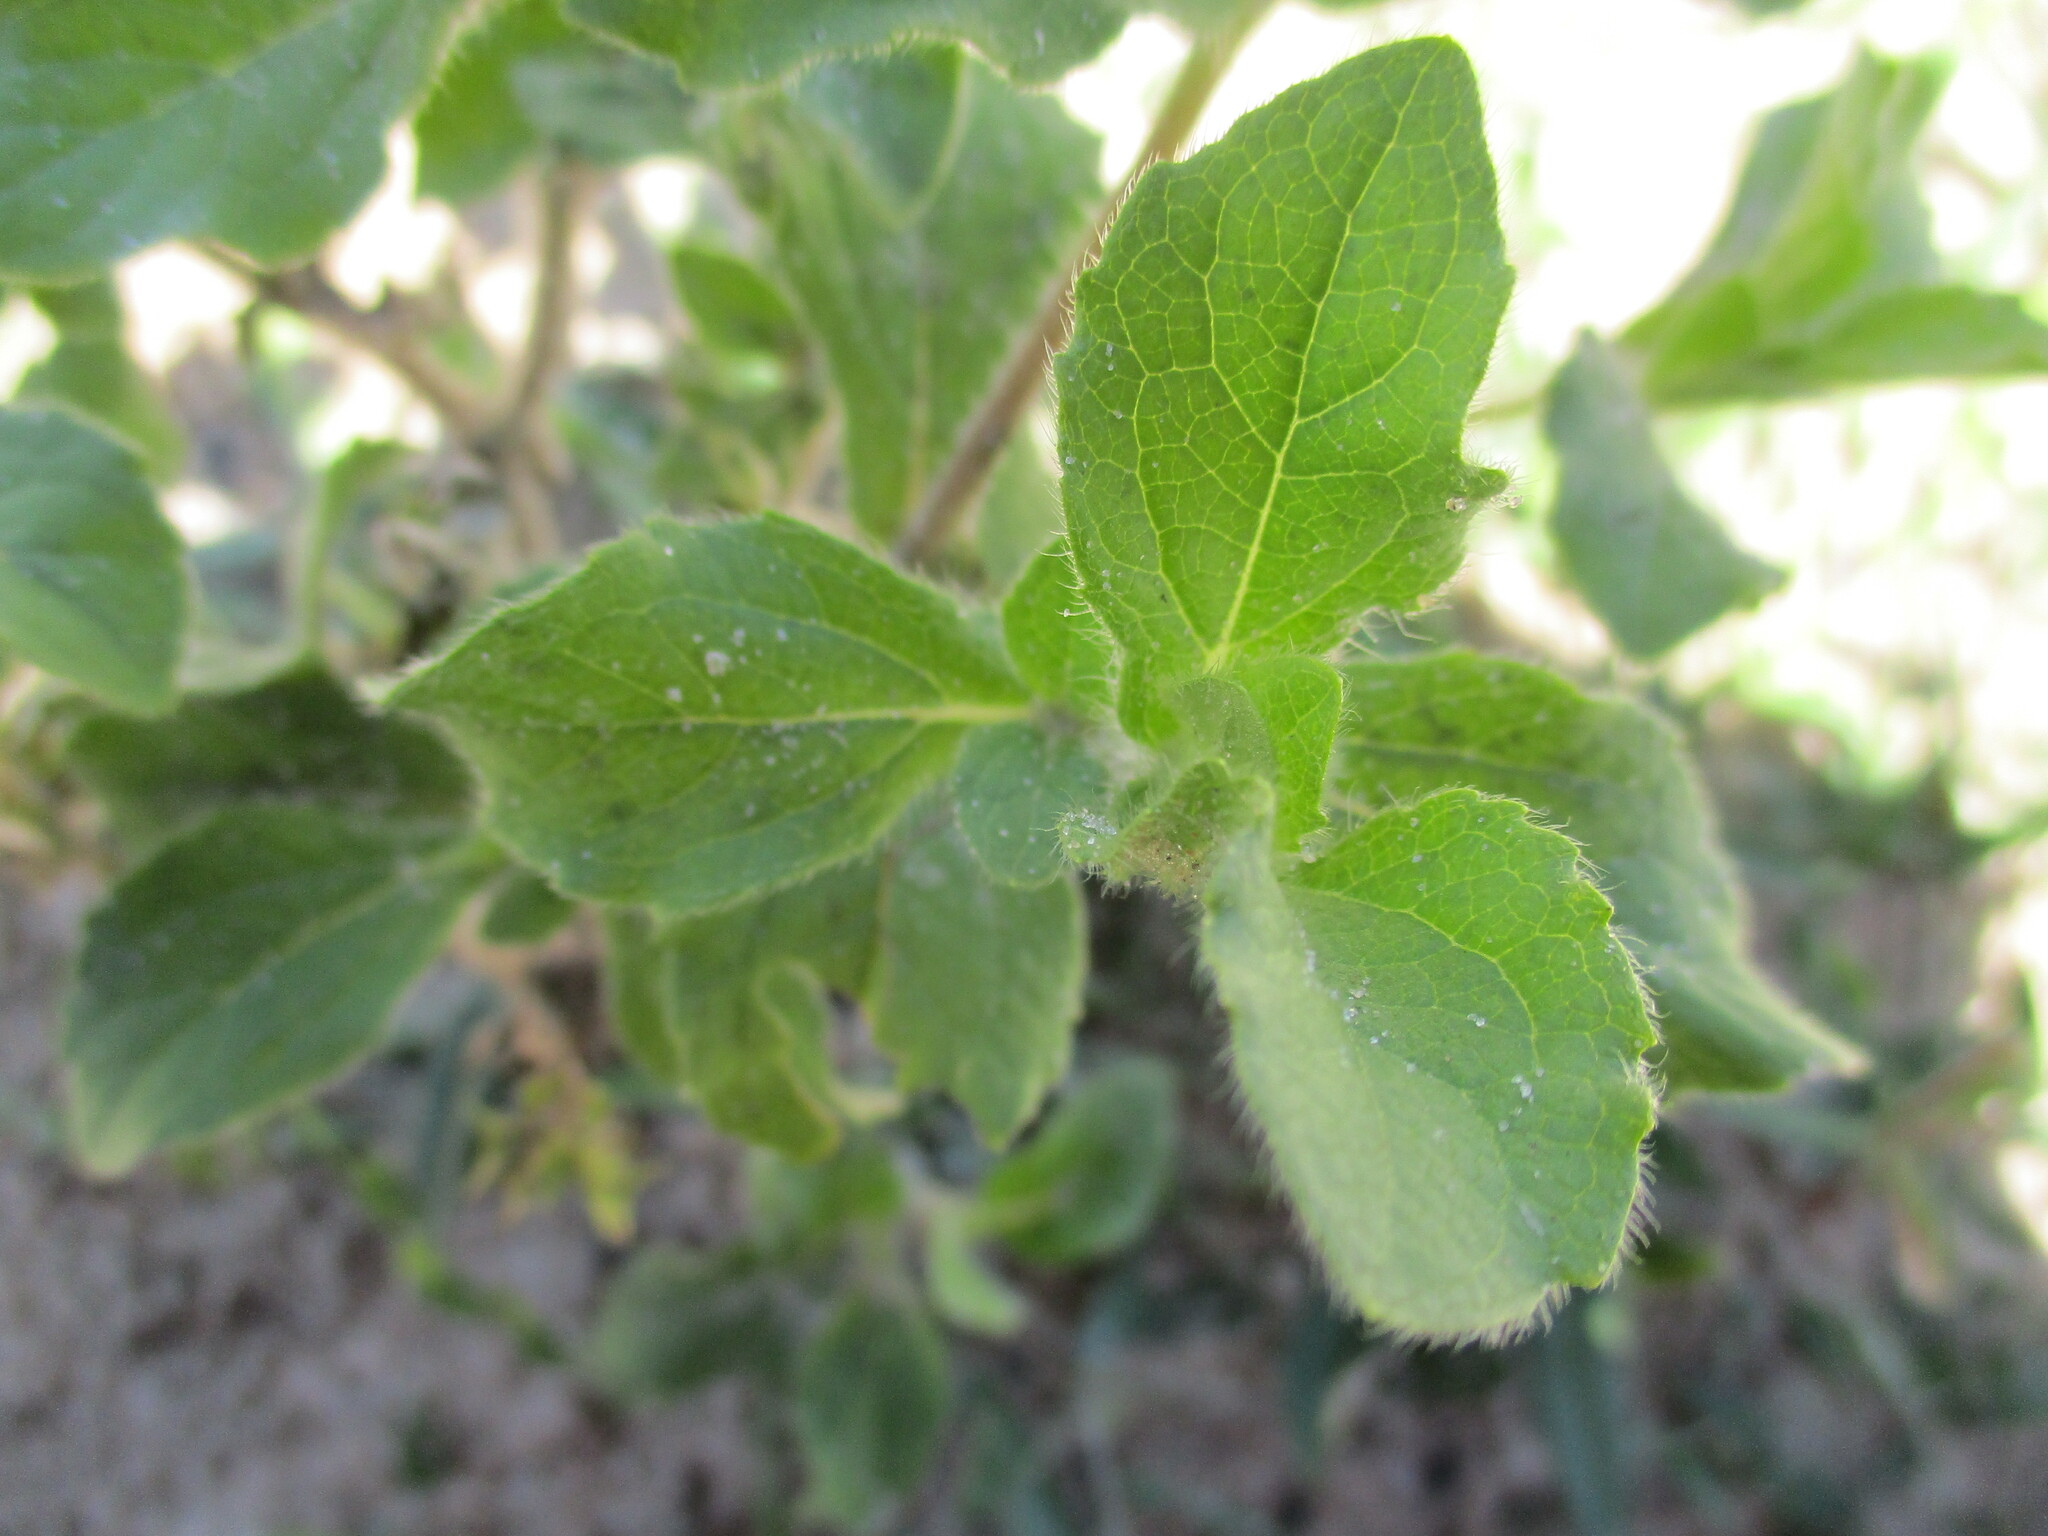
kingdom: Plantae
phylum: Tracheophyta
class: Magnoliopsida
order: Asterales
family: Asteraceae
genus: Acanthospermum
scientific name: Acanthospermum hispidum
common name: Hispid starbur
